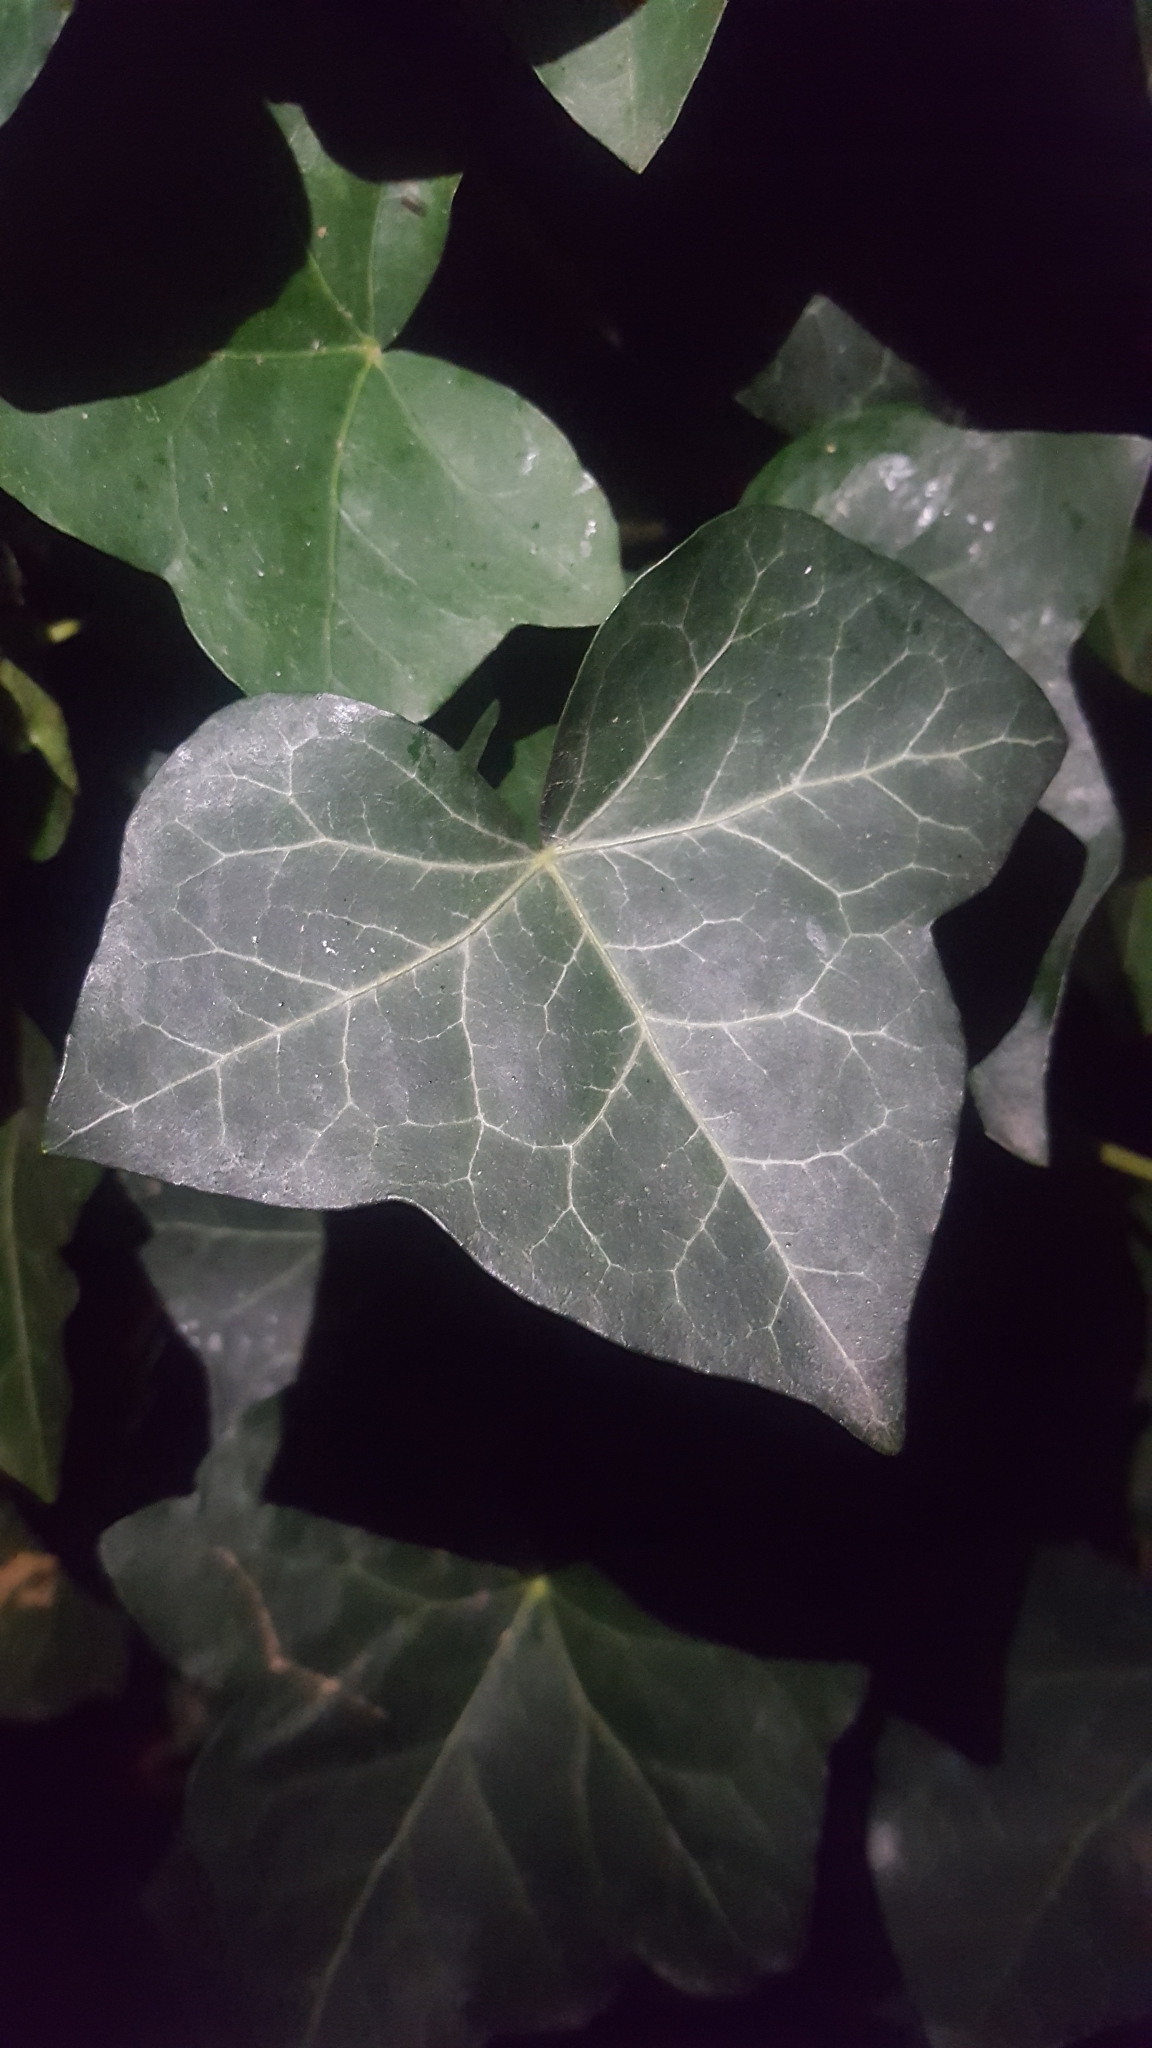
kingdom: Plantae
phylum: Tracheophyta
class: Magnoliopsida
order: Apiales
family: Araliaceae
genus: Hedera
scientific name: Hedera helix
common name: Ivy
